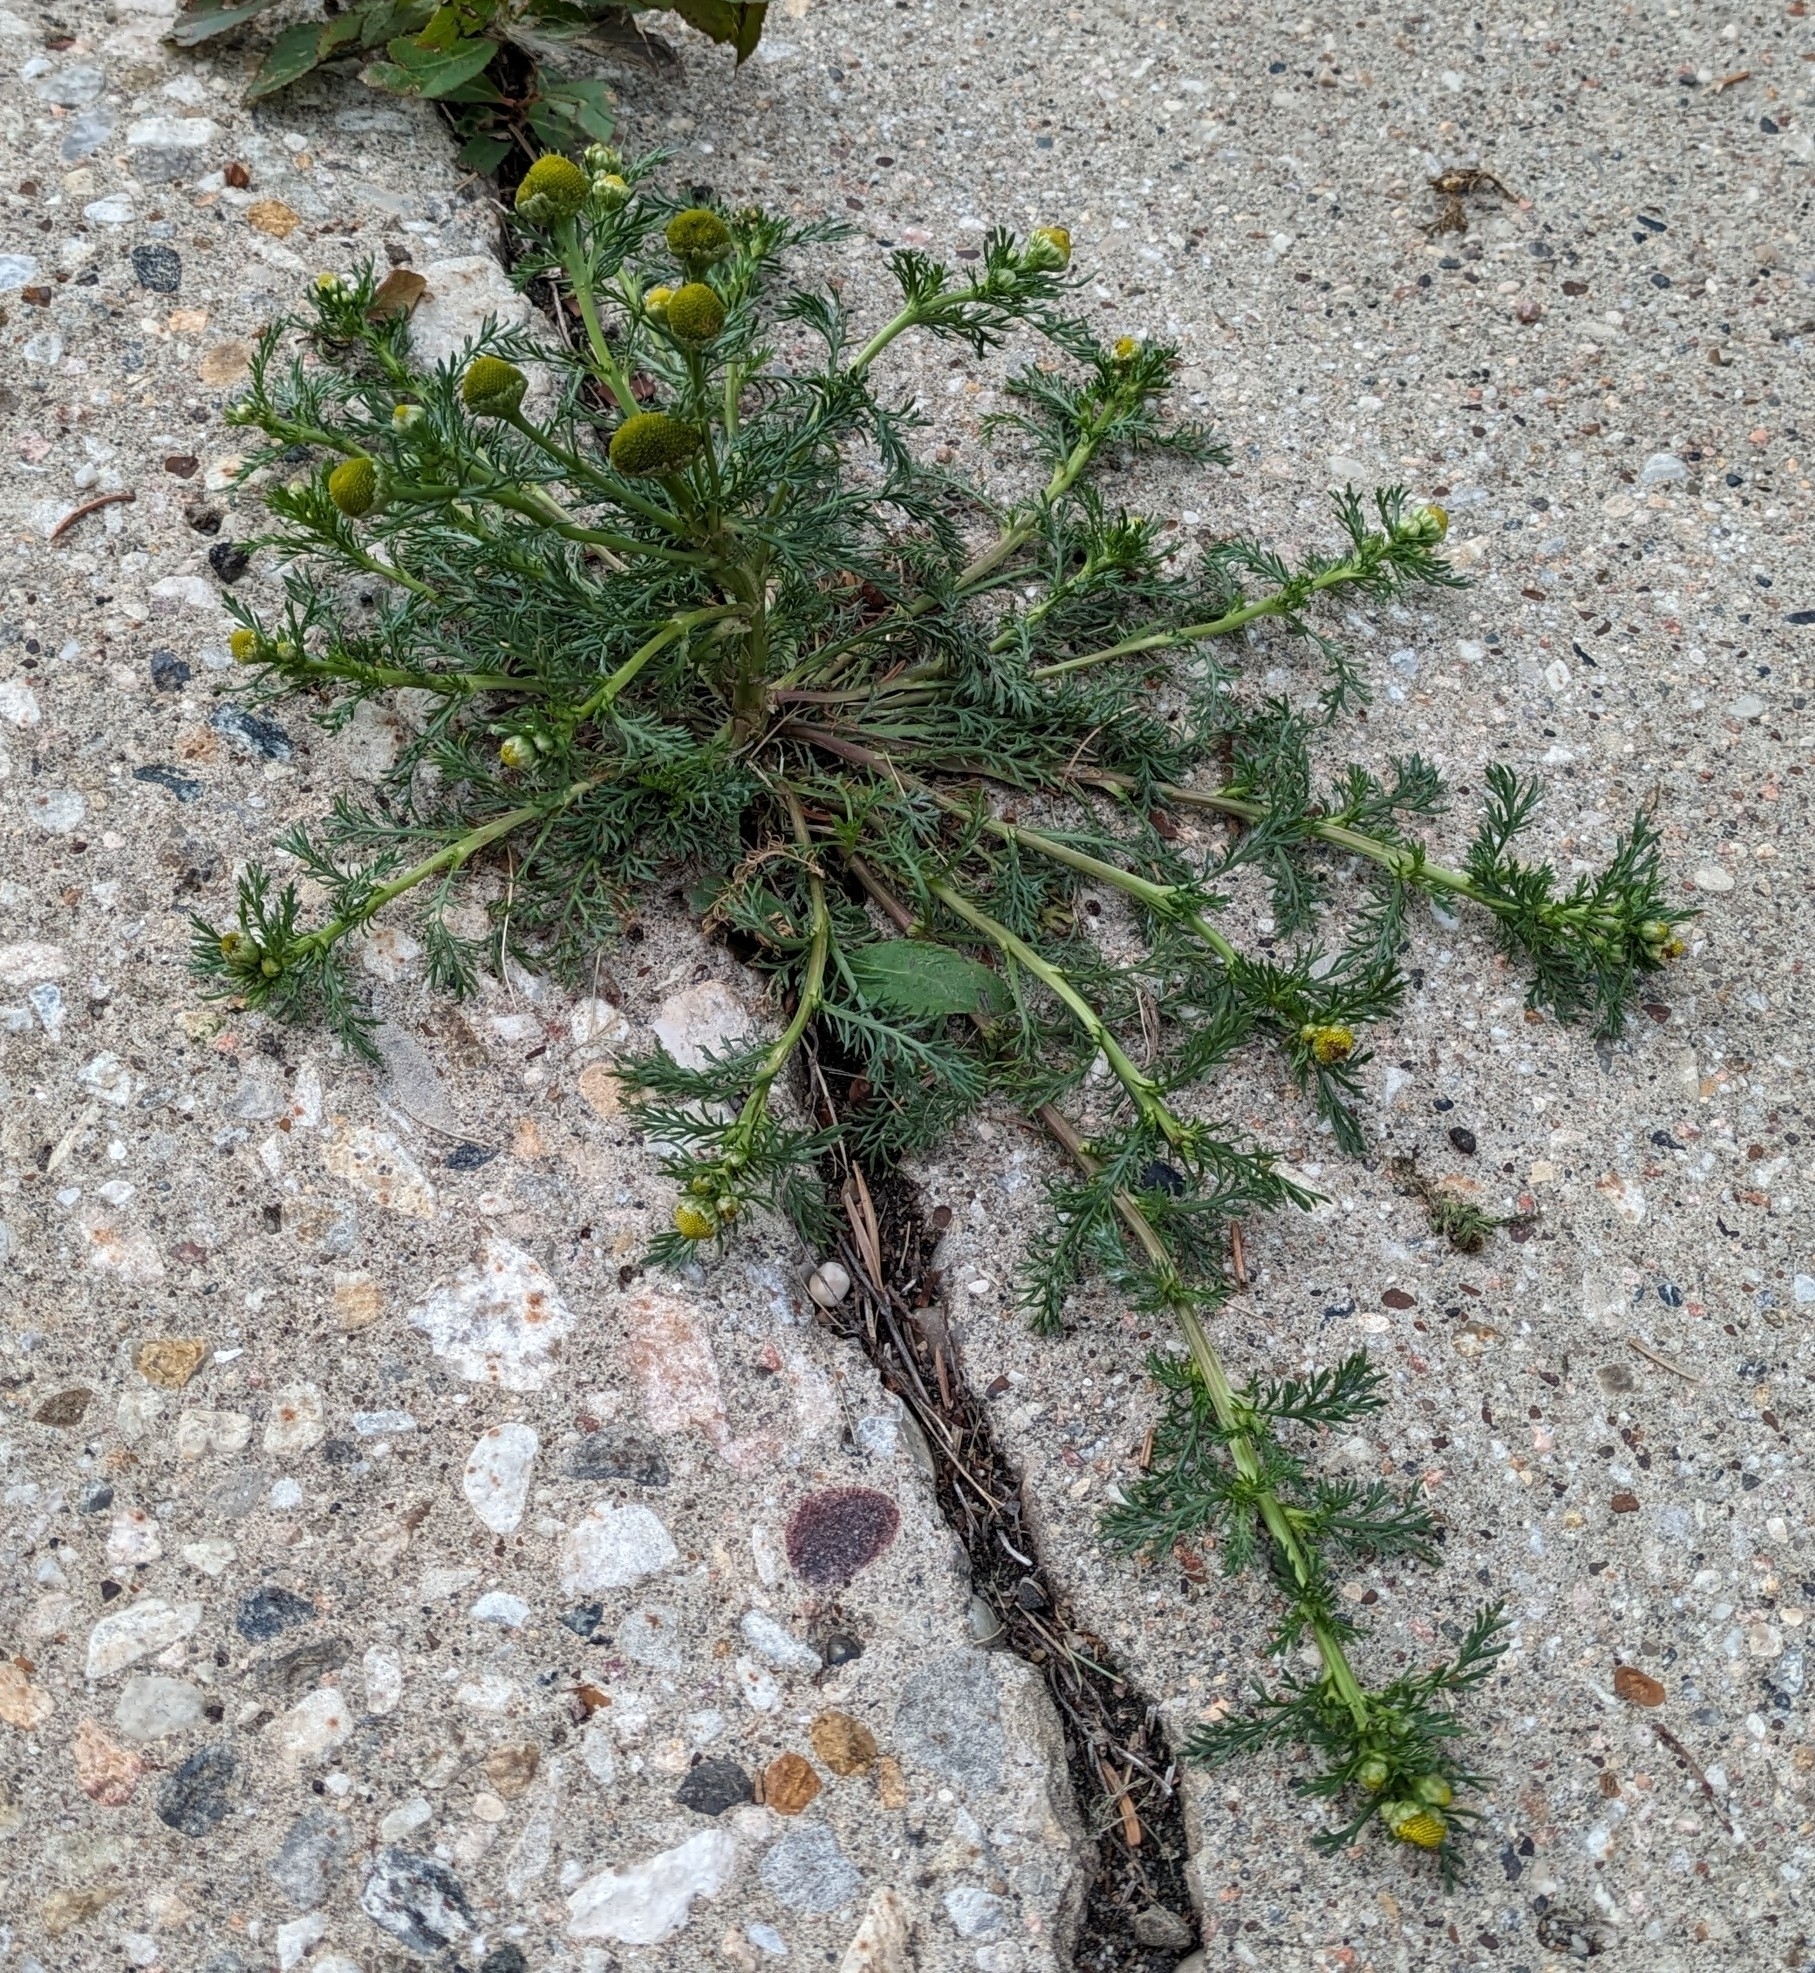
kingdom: Plantae
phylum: Tracheophyta
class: Magnoliopsida
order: Asterales
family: Asteraceae
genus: Matricaria
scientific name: Matricaria discoidea
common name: Disc mayweed
